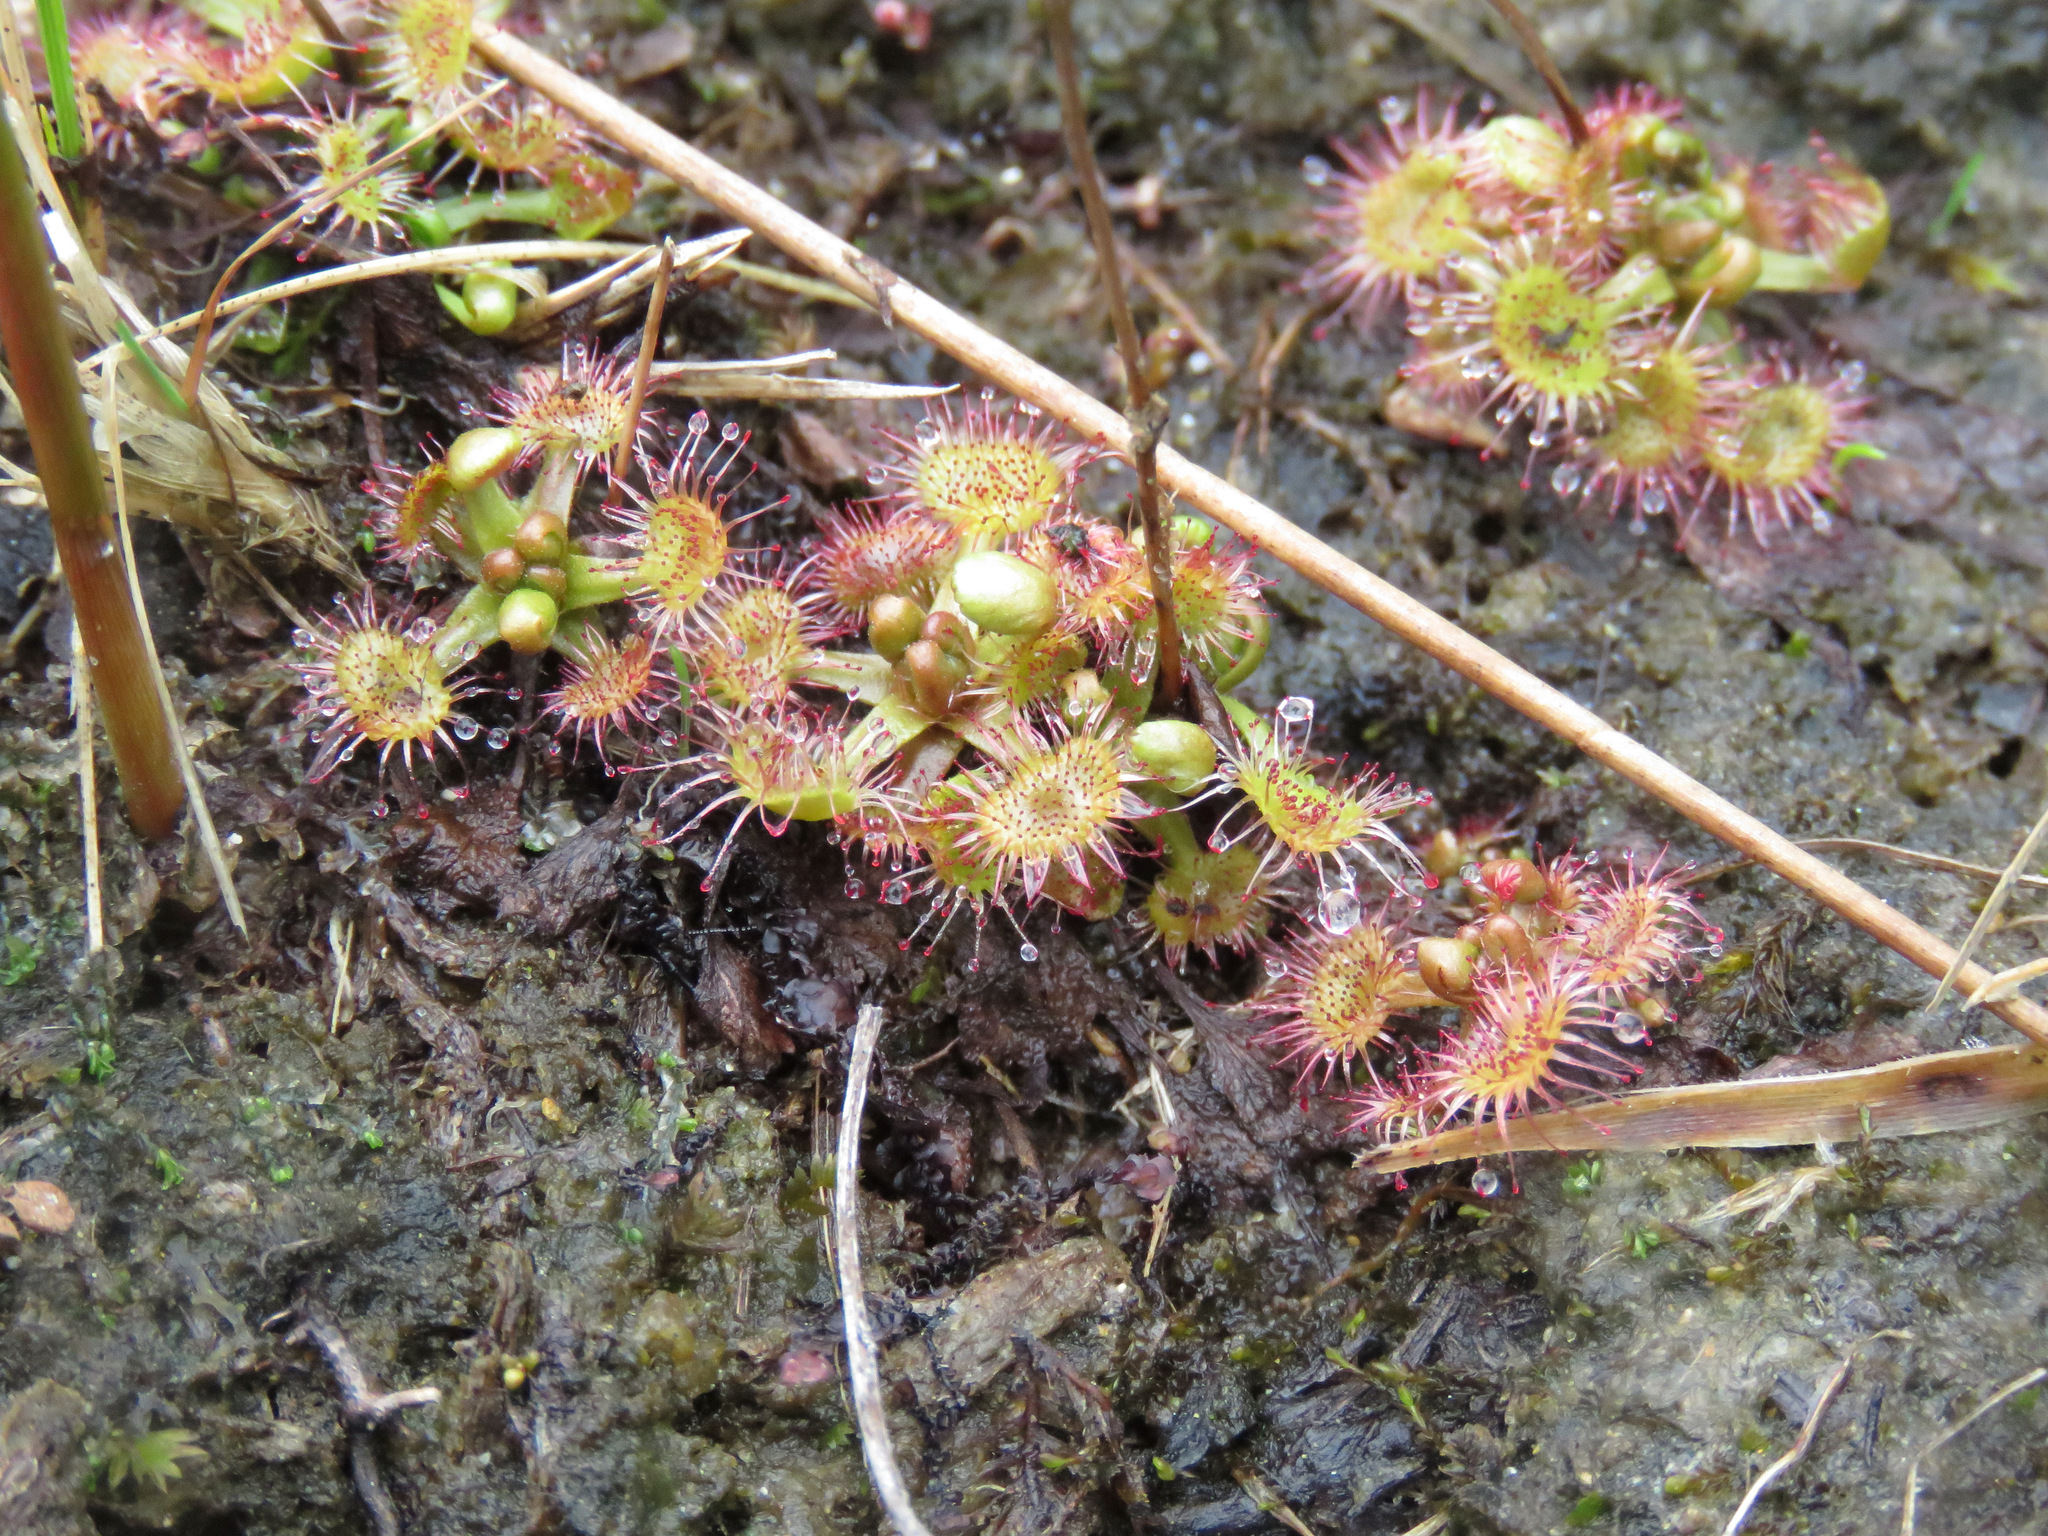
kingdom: Plantae
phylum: Tracheophyta
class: Magnoliopsida
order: Caryophyllales
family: Droseraceae
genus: Drosera
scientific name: Drosera rotundifolia
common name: Round-leaved sundew
